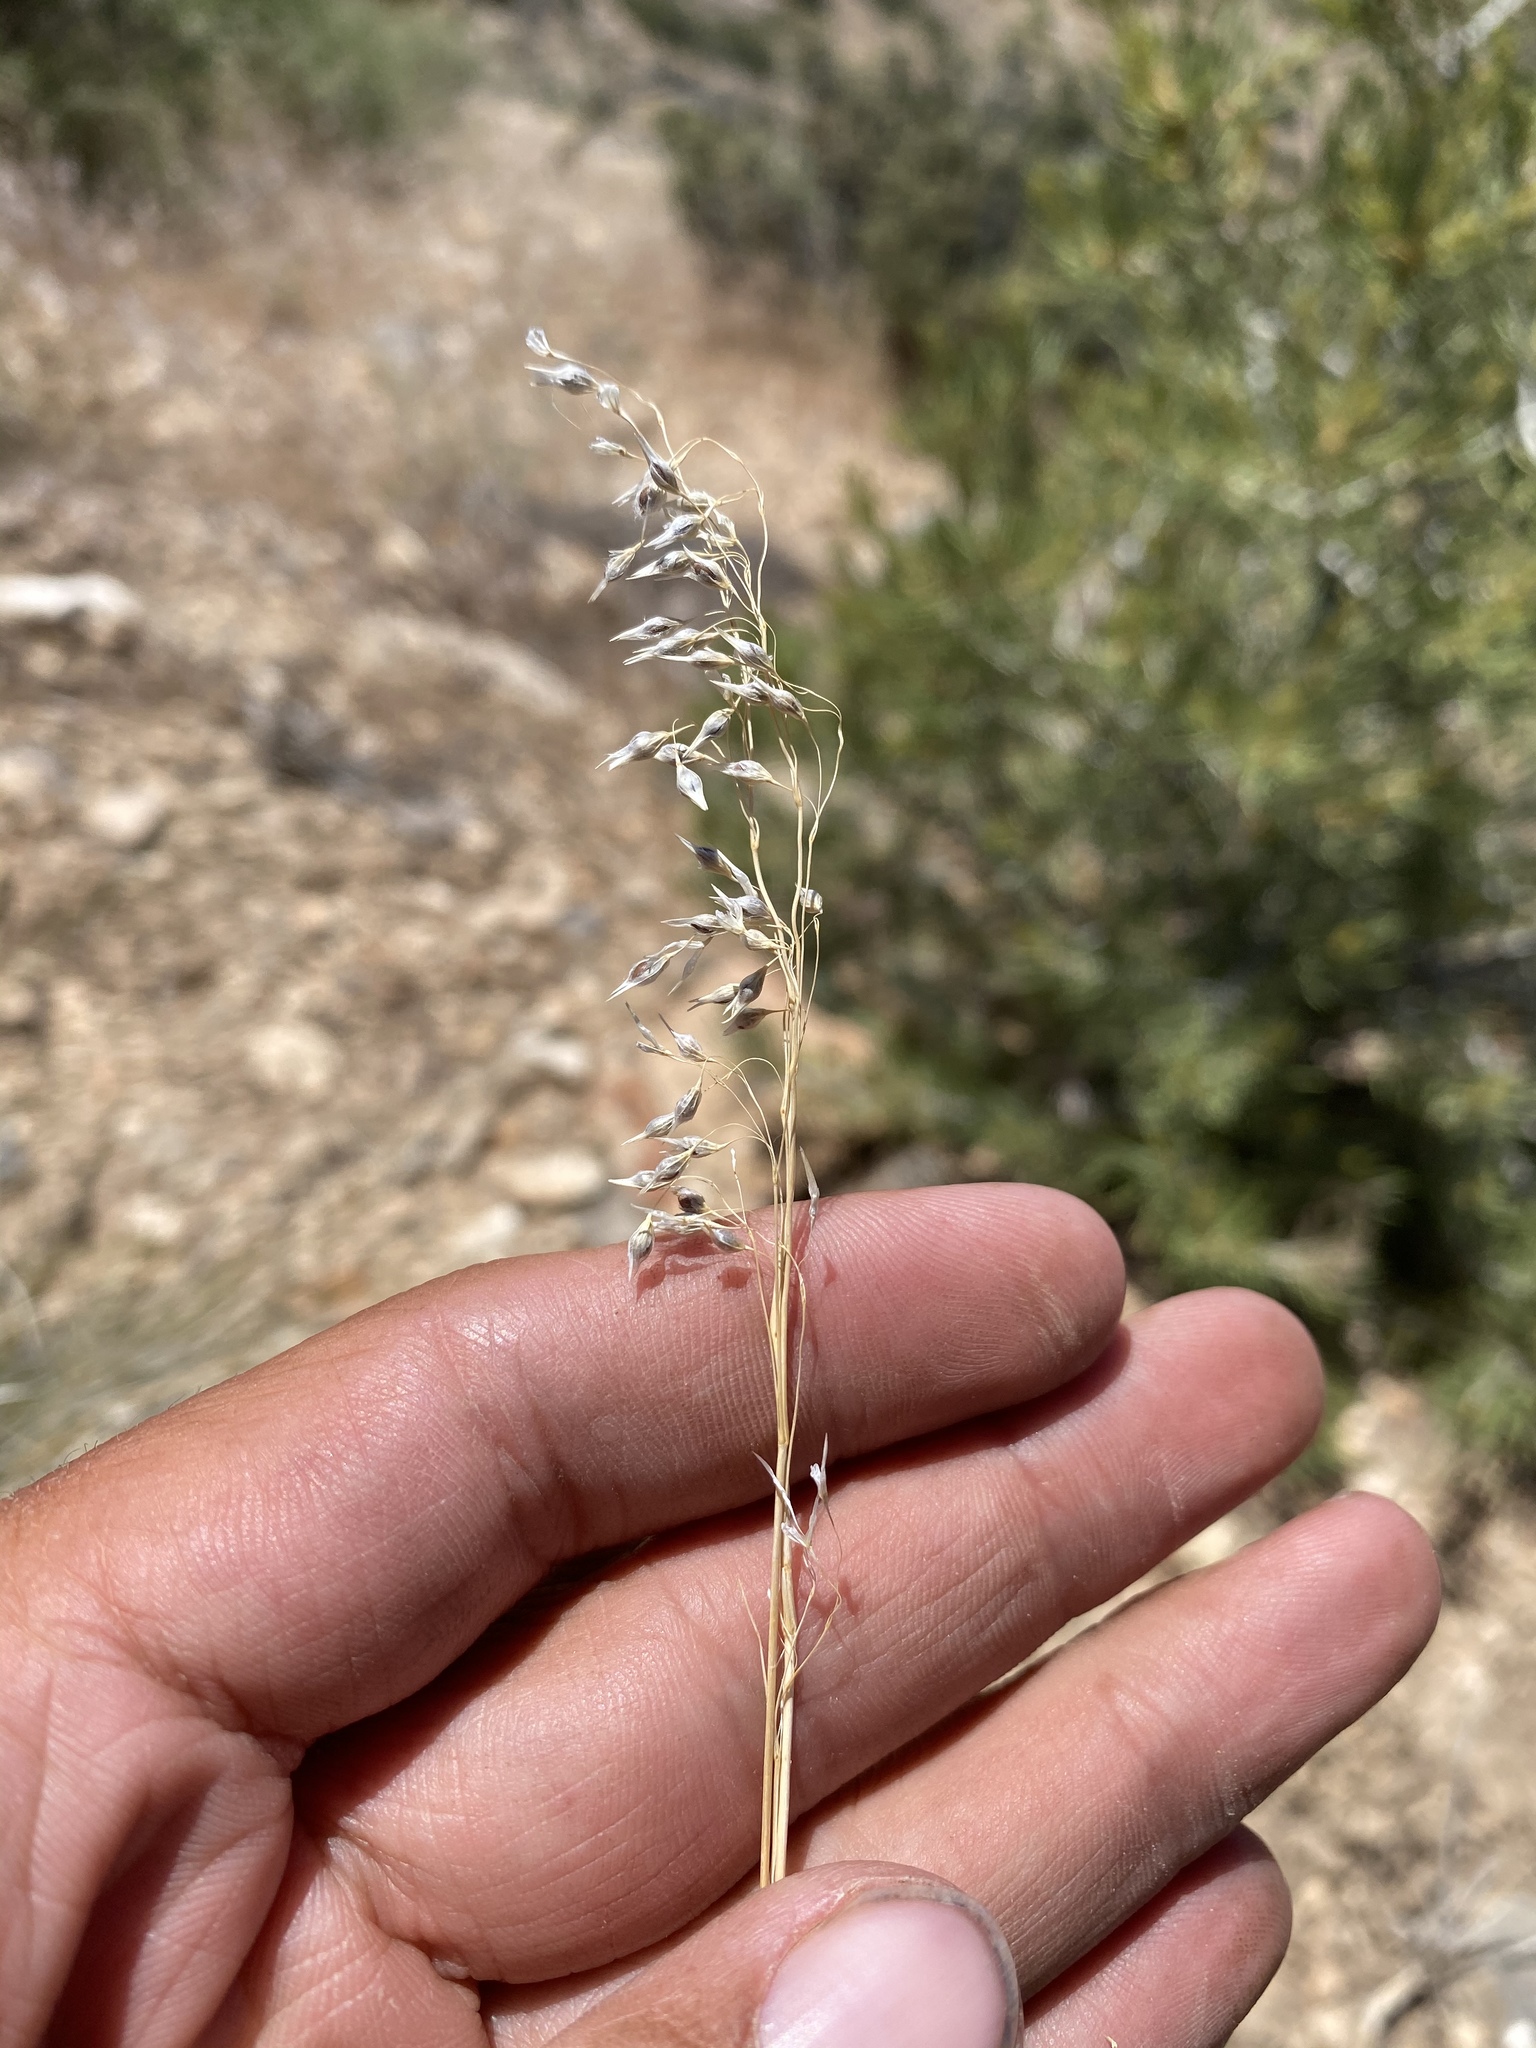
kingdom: Plantae
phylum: Tracheophyta
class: Liliopsida
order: Poales
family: Poaceae
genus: Eriocoma
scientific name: Eriocoma arnowiae
